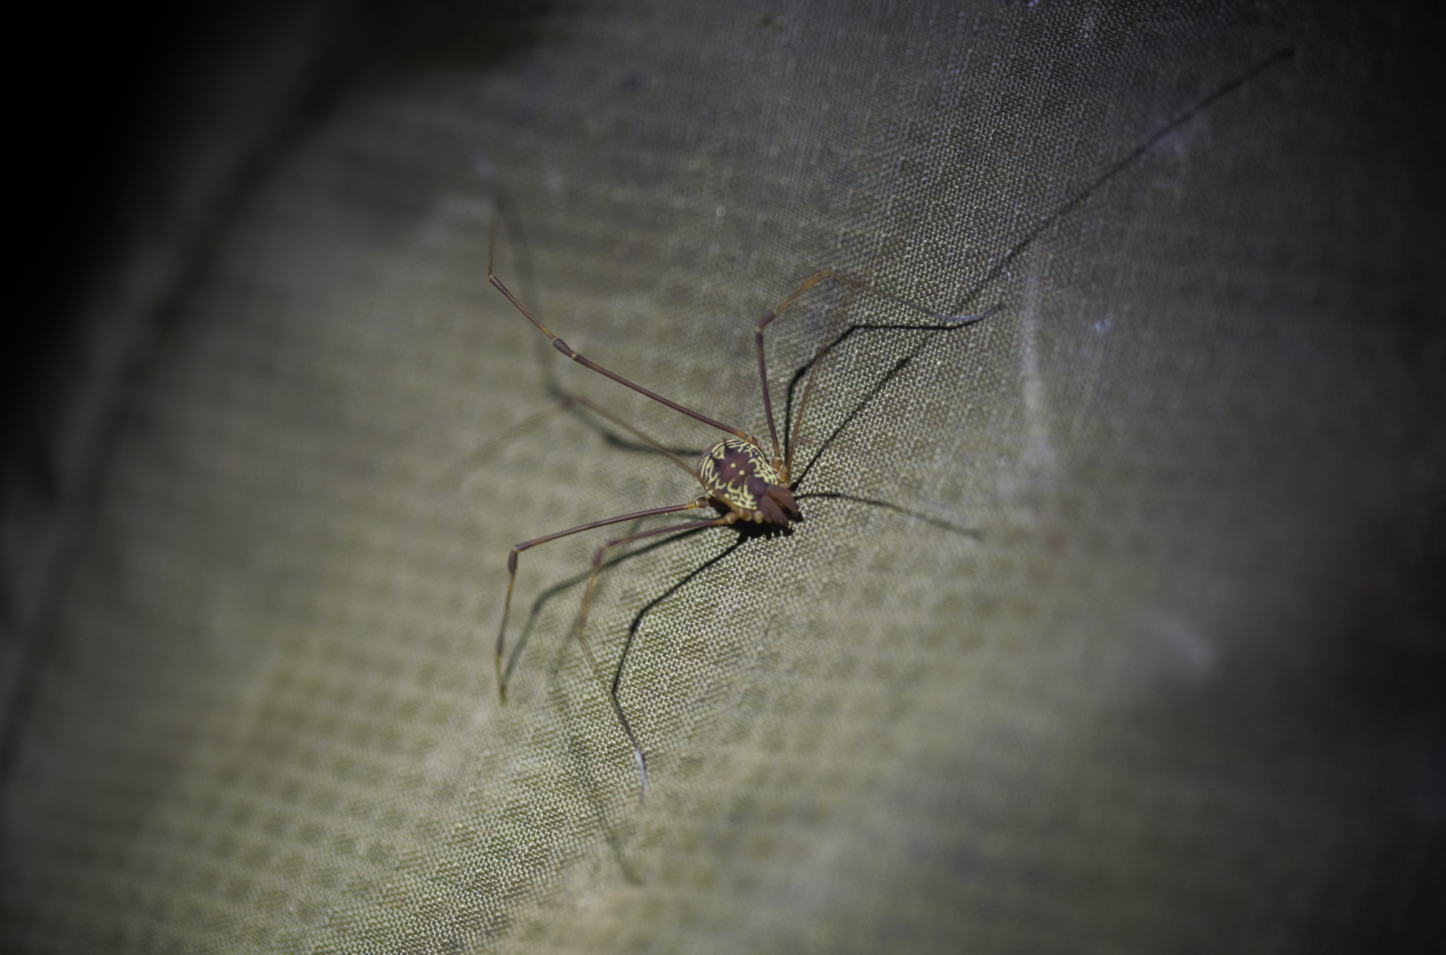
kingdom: Animalia
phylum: Arthropoda
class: Arachnida
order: Opiliones
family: Cosmetidae
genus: Paecilaema
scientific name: Paecilaema sigillatum
